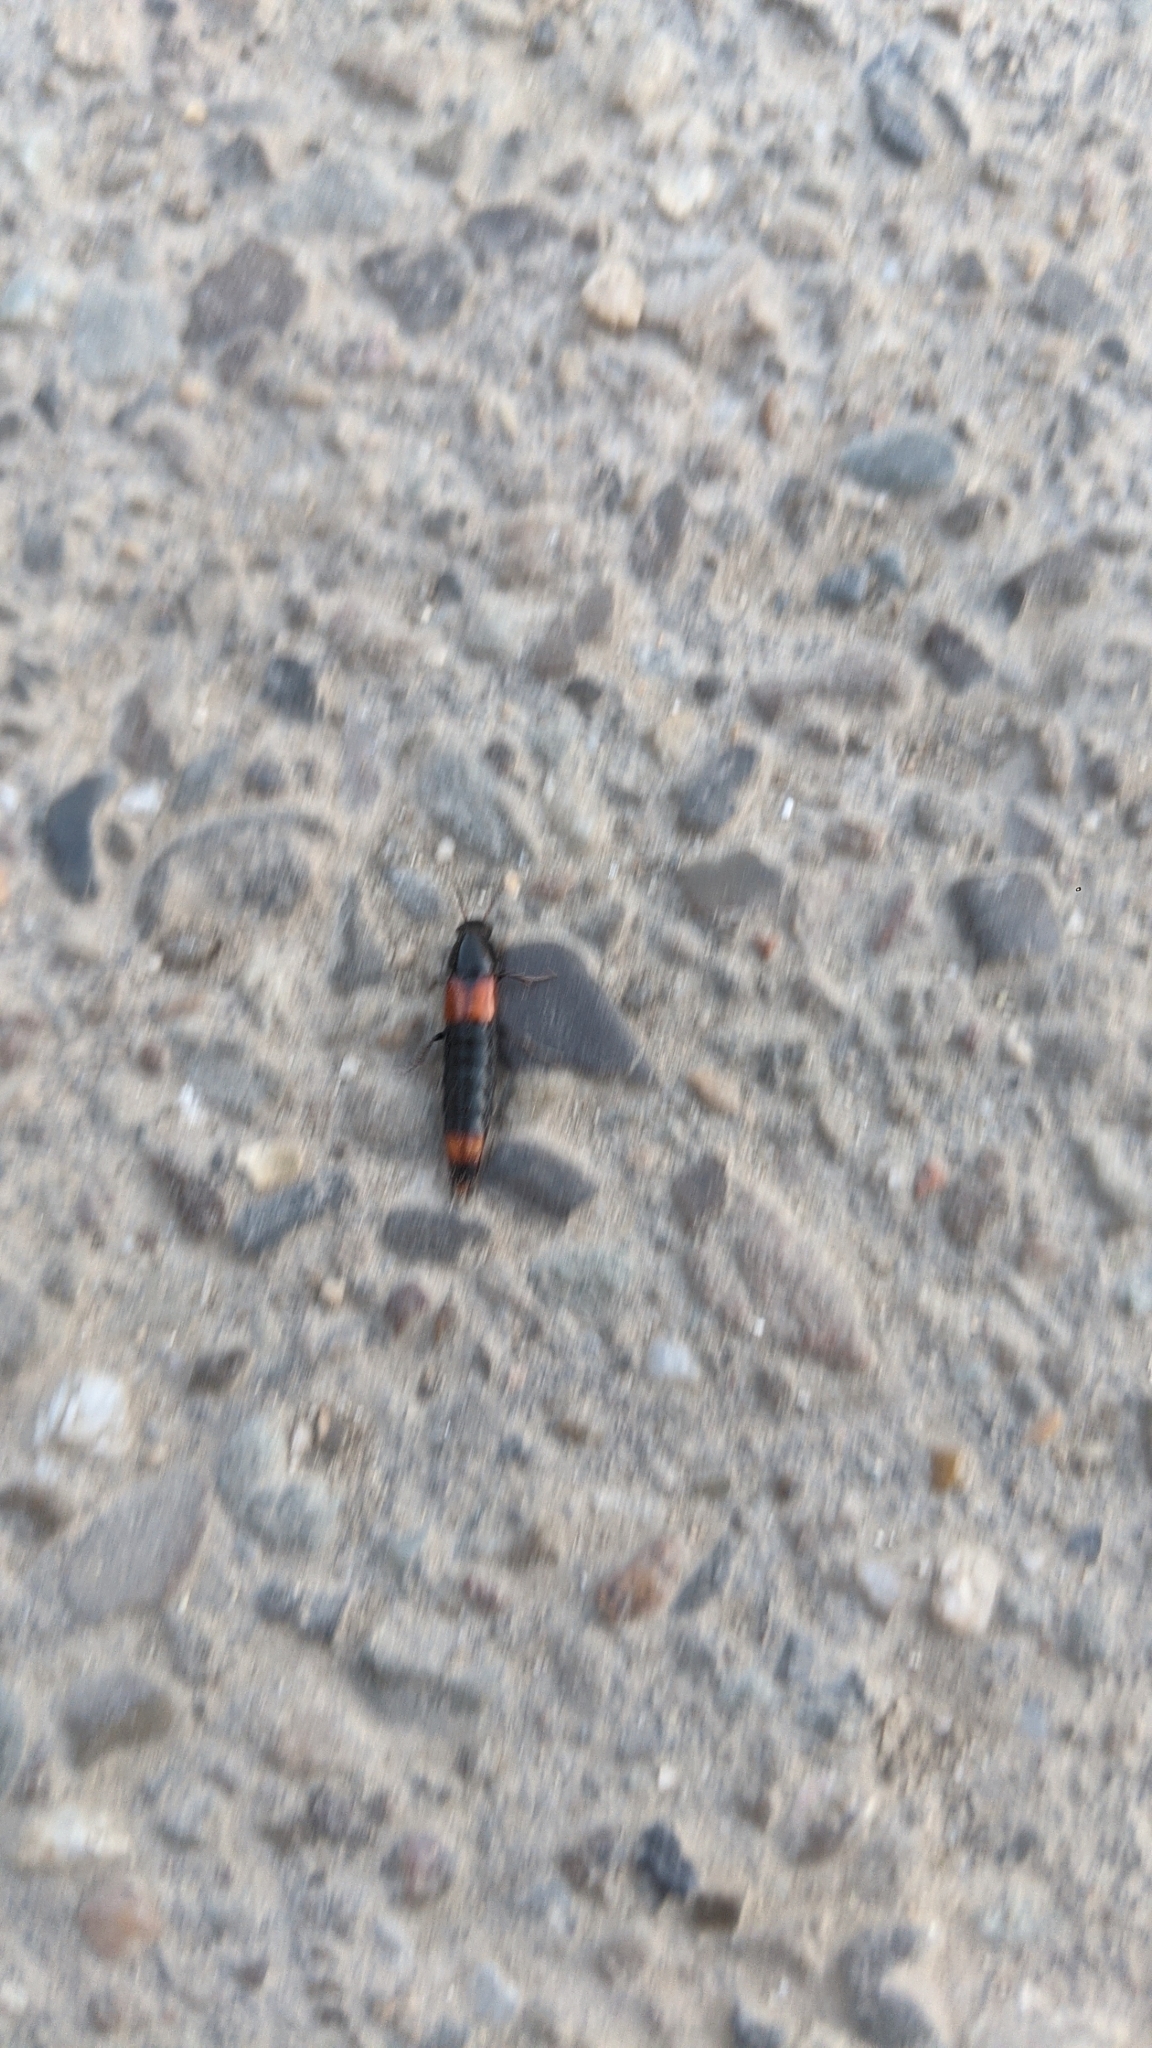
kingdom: Animalia
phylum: Arthropoda
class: Insecta
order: Coleoptera
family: Staphylinidae
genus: Astrapaeus
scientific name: Astrapaeus ulmi
